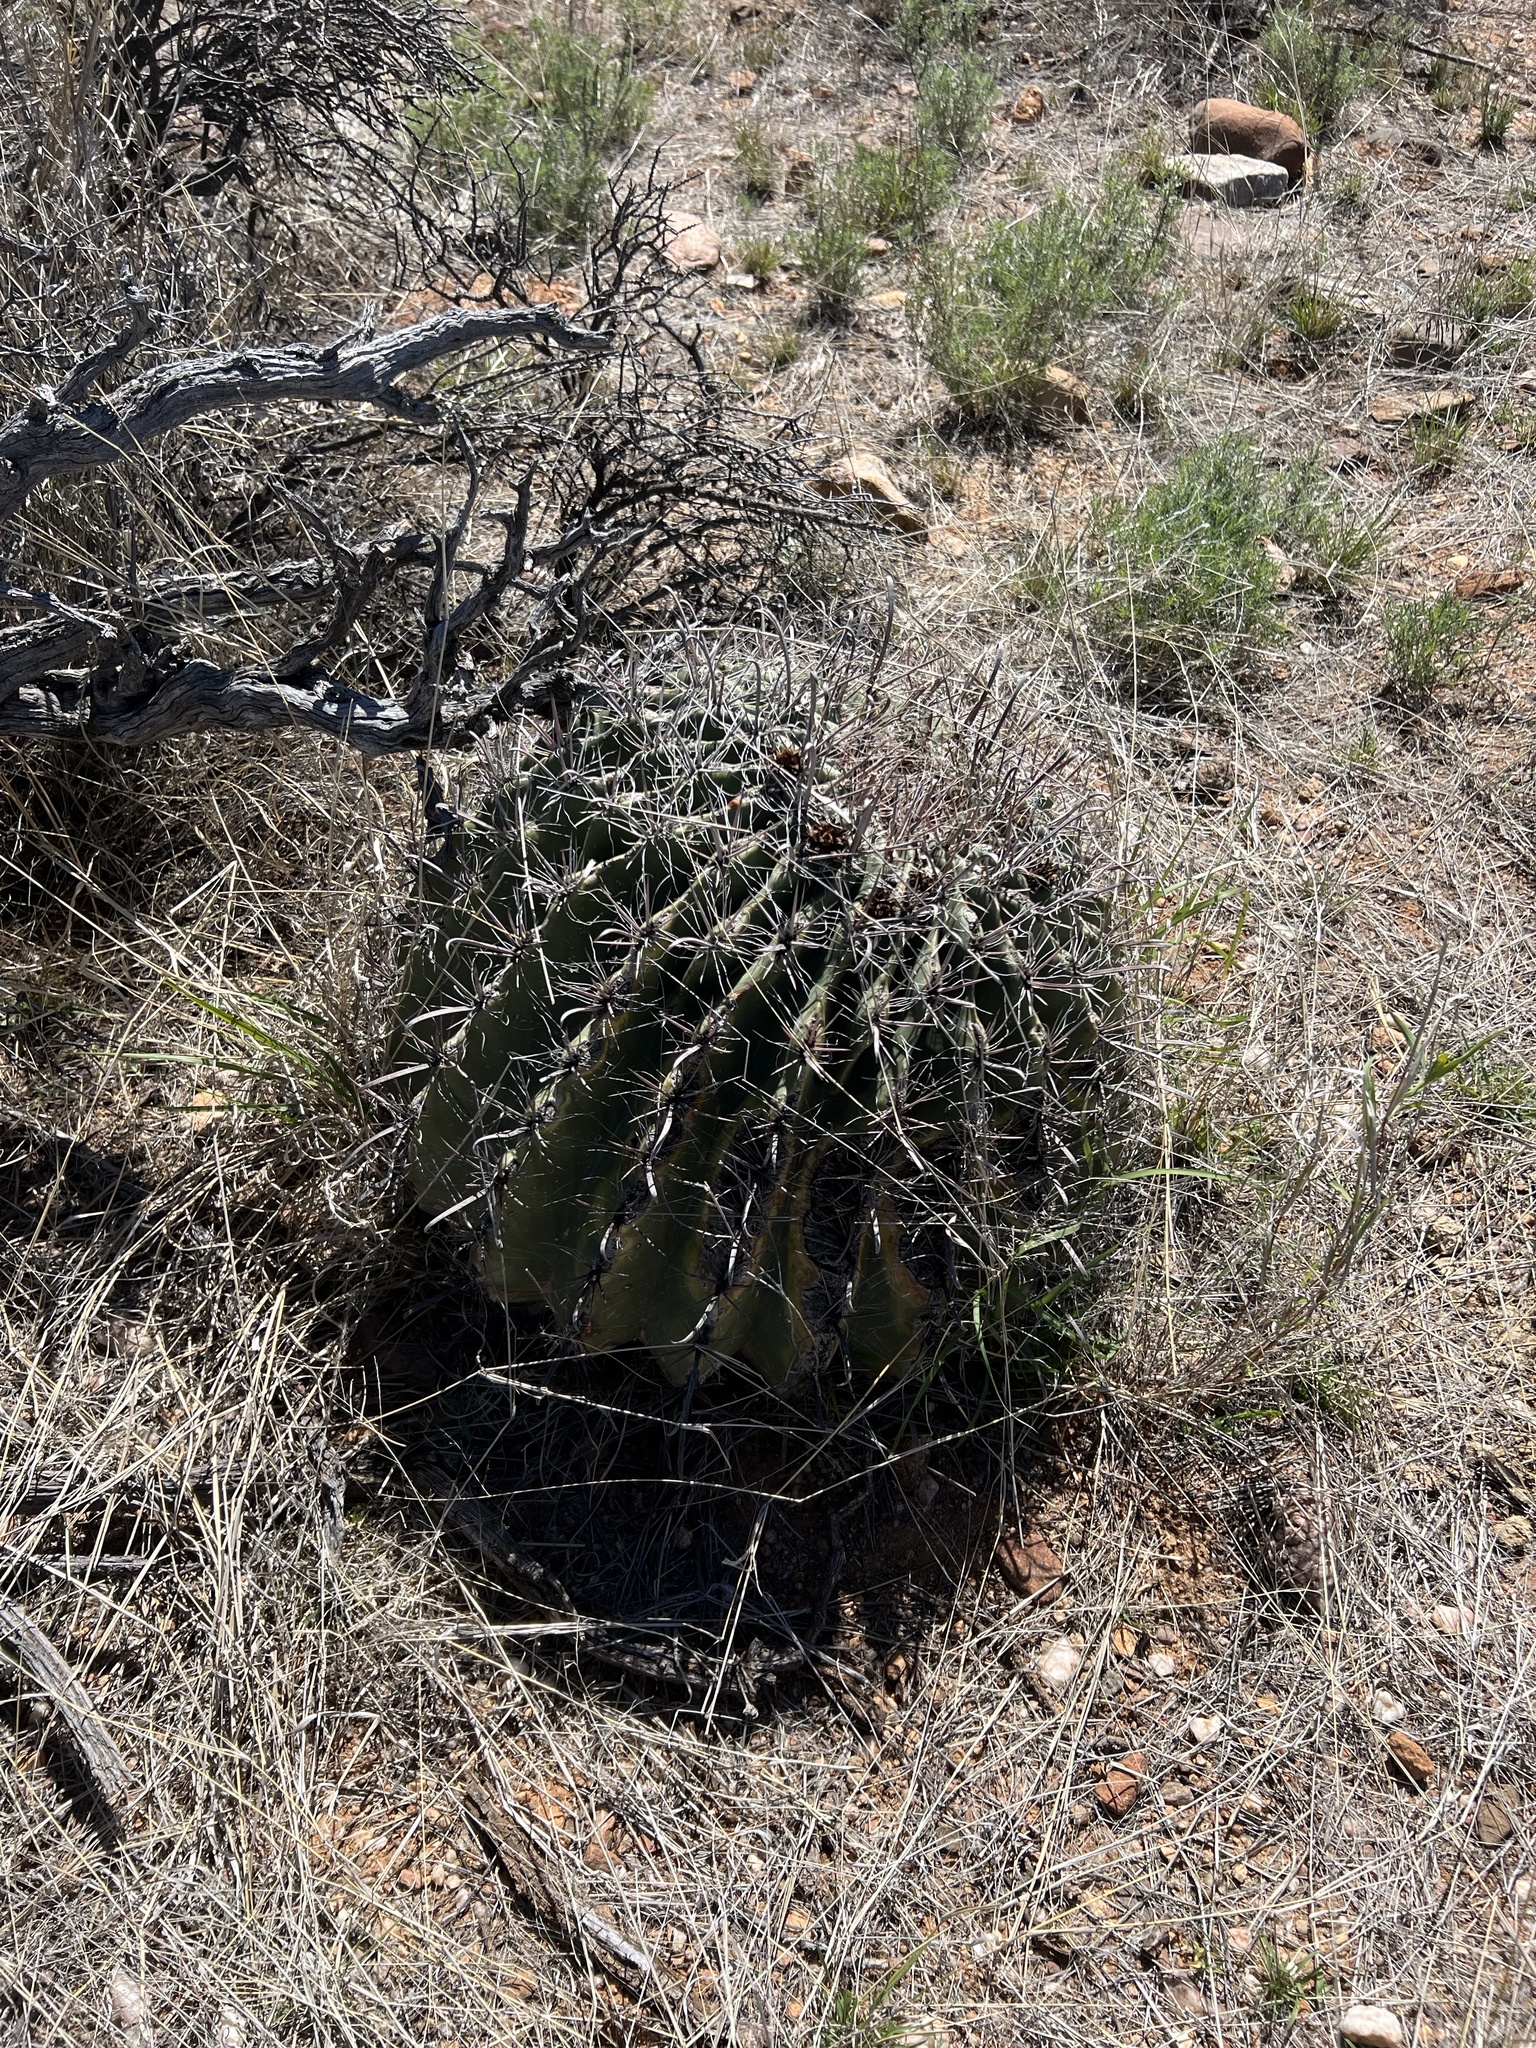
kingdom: Plantae
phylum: Tracheophyta
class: Magnoliopsida
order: Caryophyllales
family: Cactaceae
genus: Ferocactus
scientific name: Ferocactus wislizeni
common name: Candy barrel cactus
